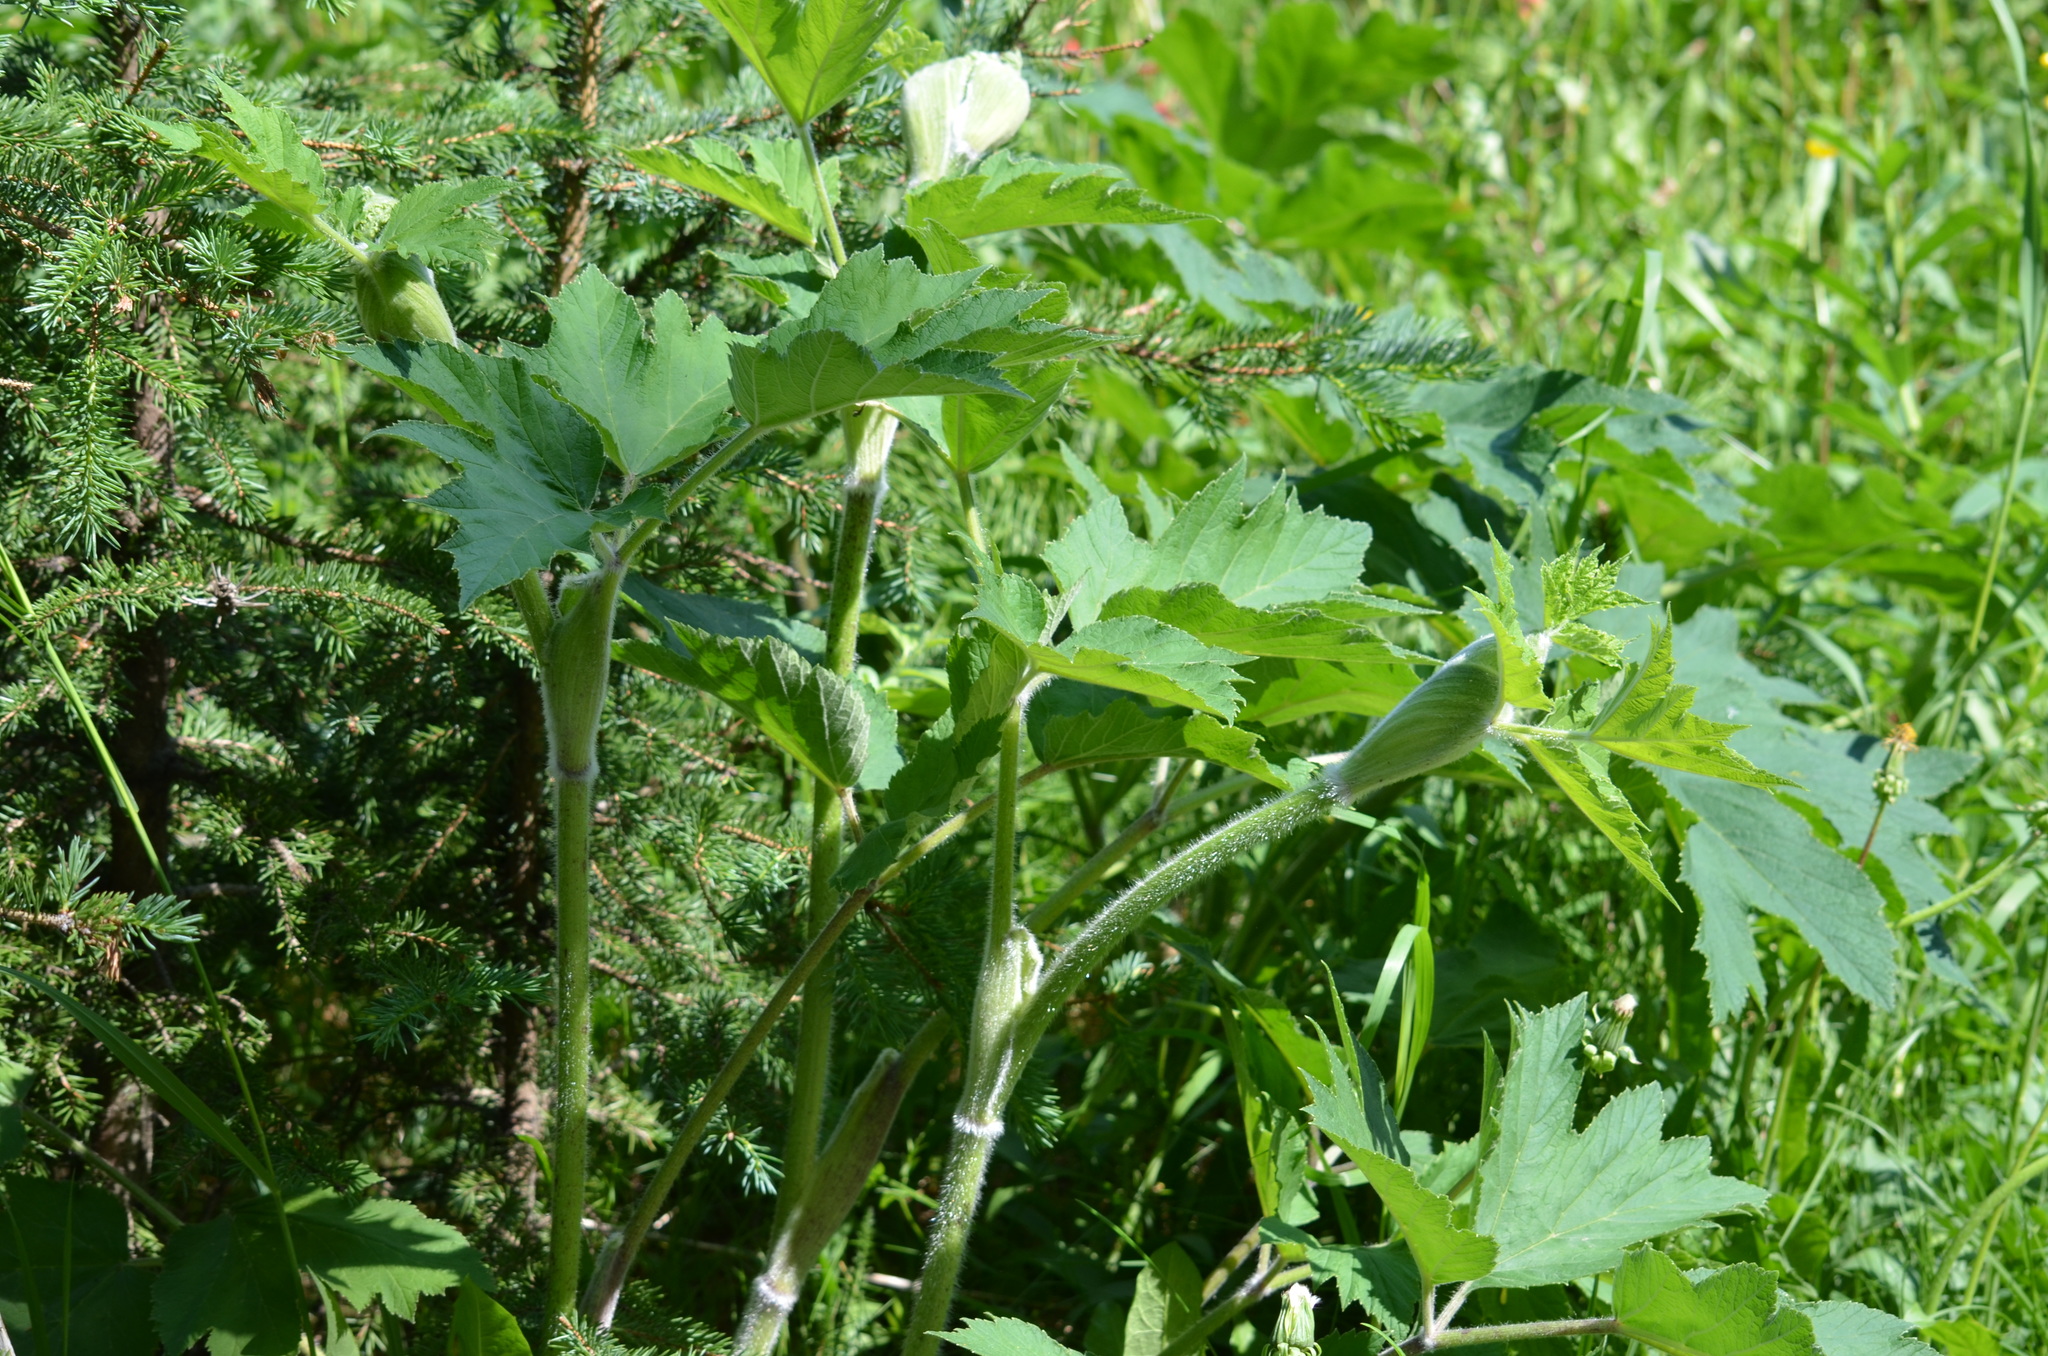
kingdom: Plantae
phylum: Tracheophyta
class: Magnoliopsida
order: Apiales
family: Apiaceae
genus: Heracleum
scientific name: Heracleum maximum
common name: American cow parsnip
